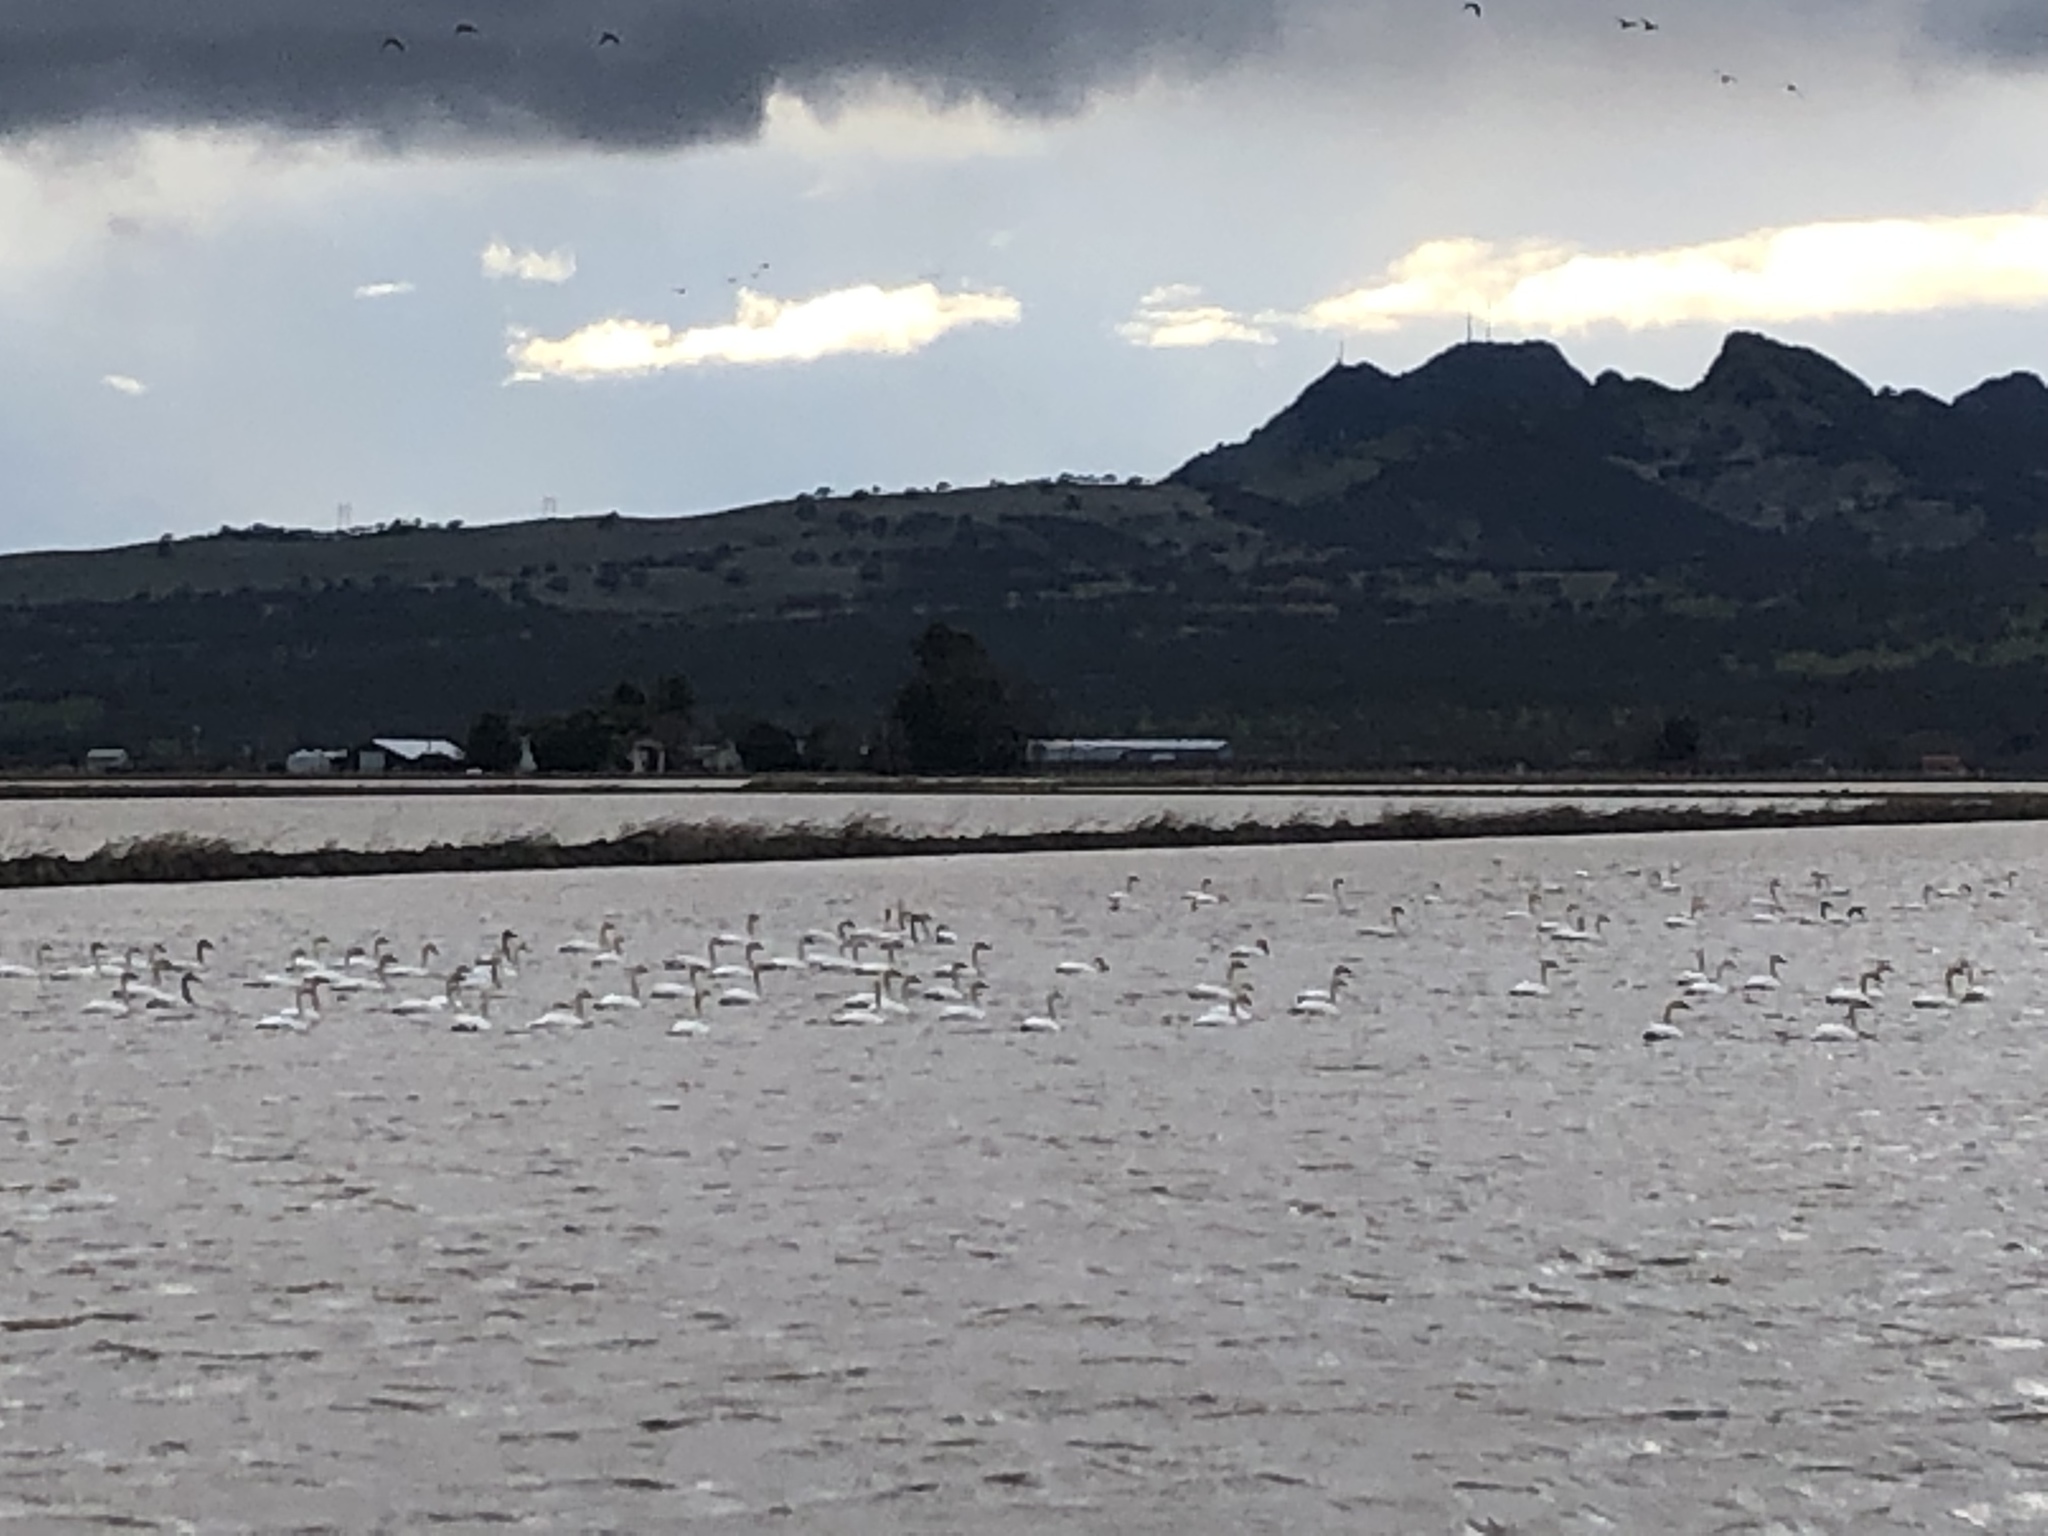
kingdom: Animalia
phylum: Chordata
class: Aves
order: Anseriformes
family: Anatidae
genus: Cygnus
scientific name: Cygnus columbianus
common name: Tundra swan
